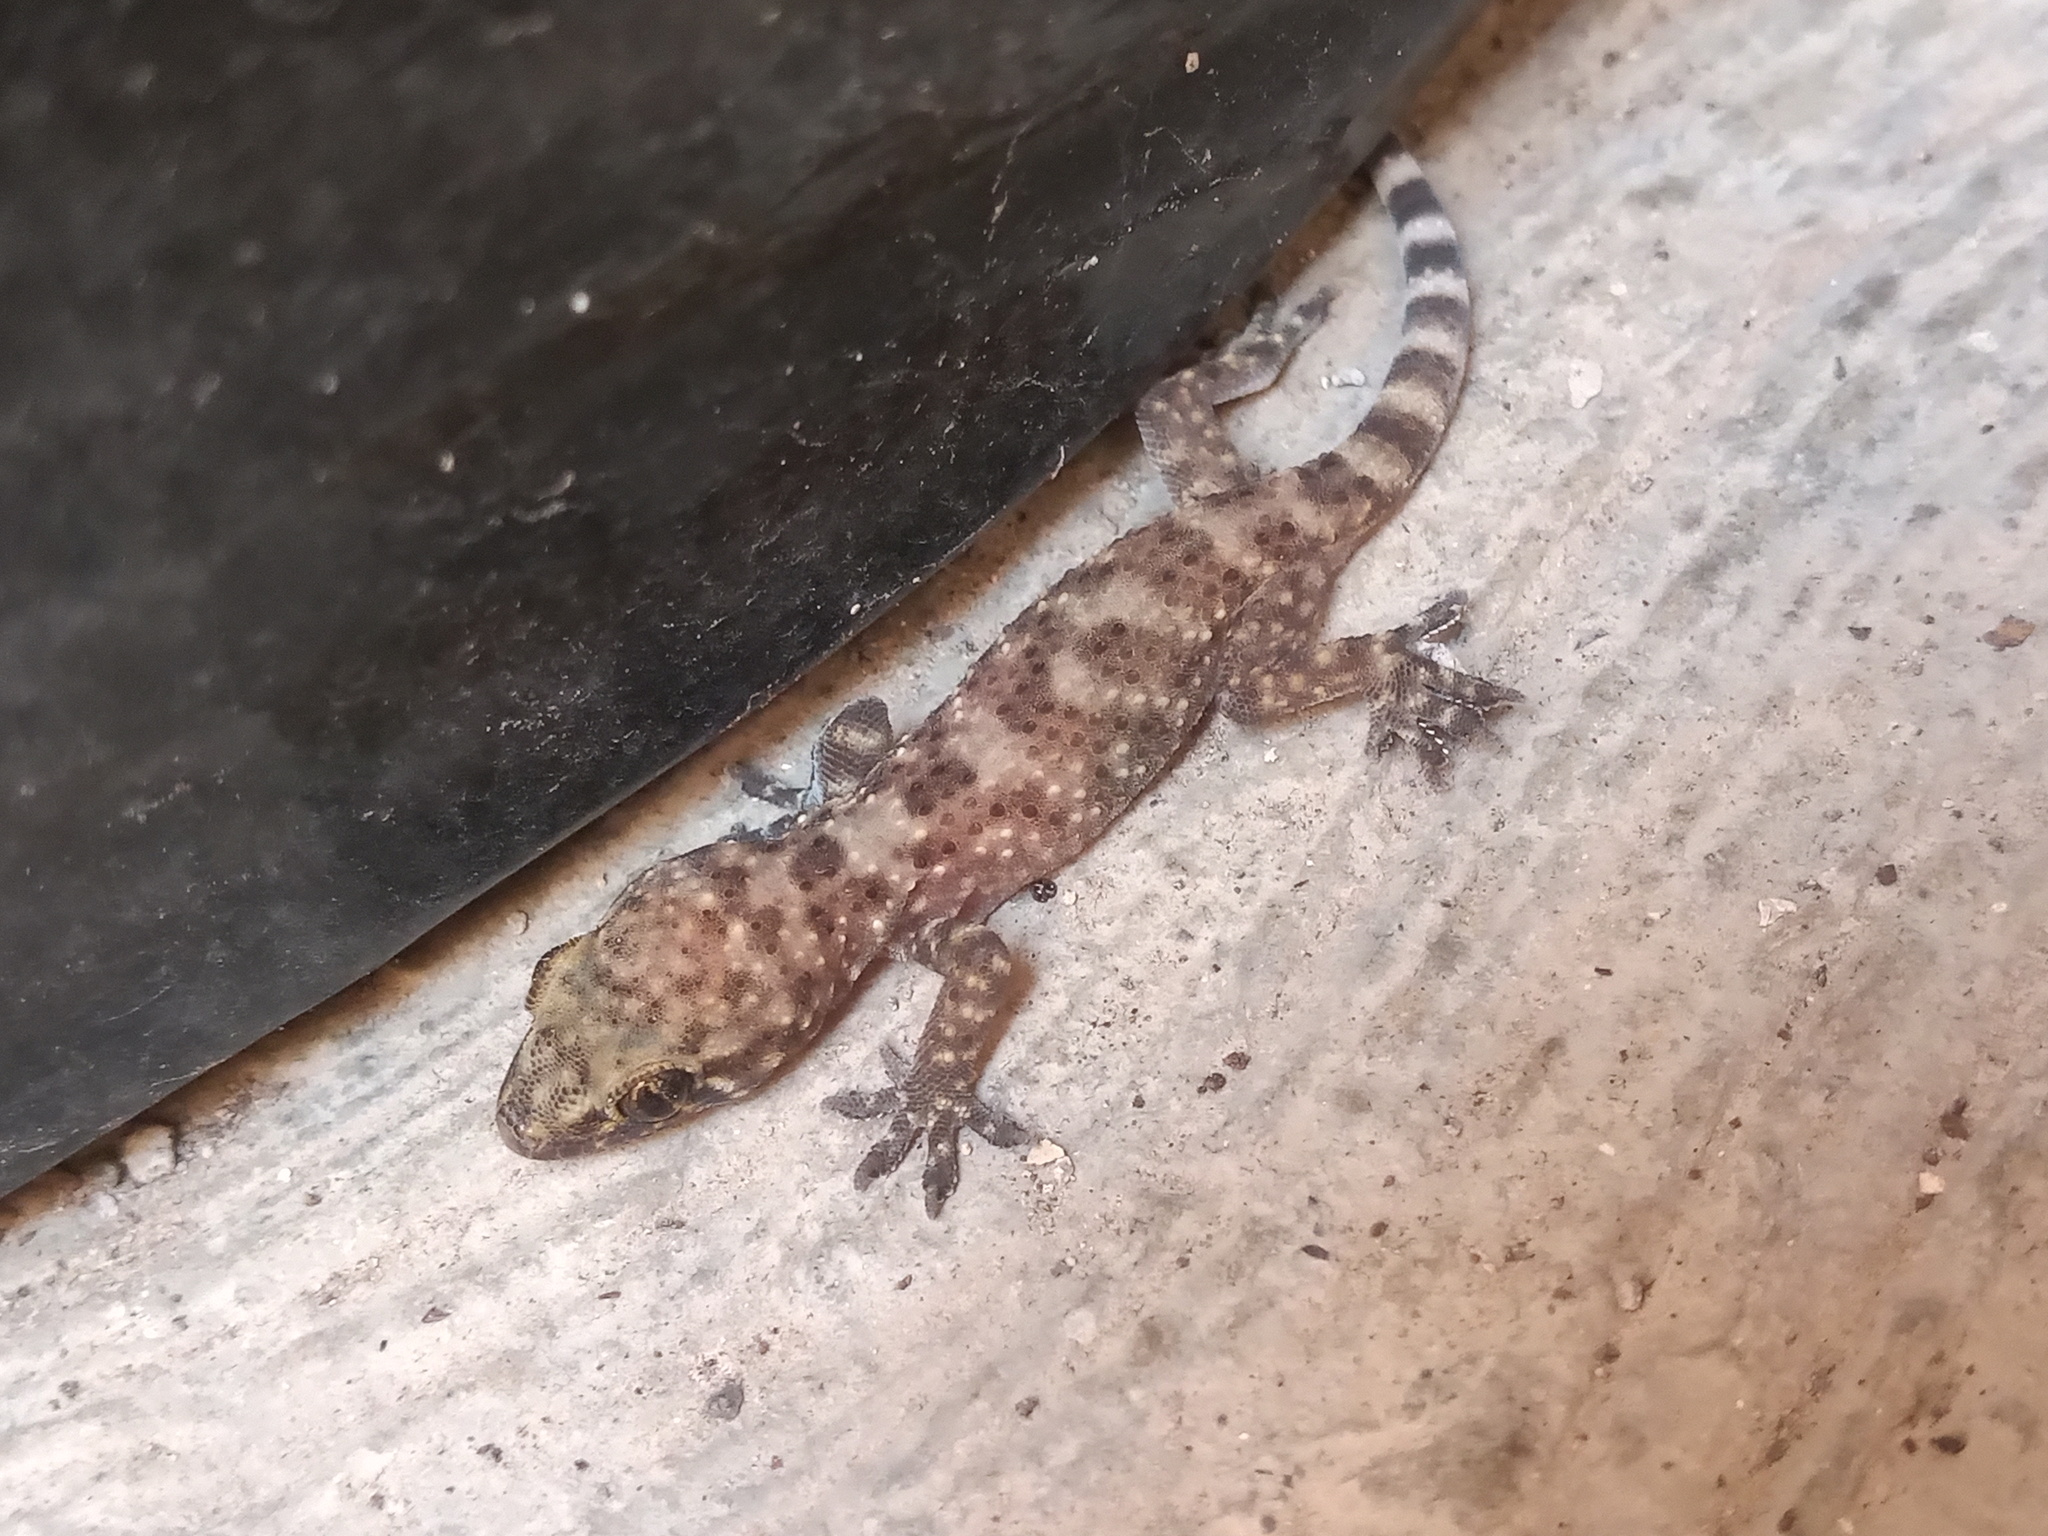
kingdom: Animalia
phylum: Chordata
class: Squamata
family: Gekkonidae
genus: Hemidactylus
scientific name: Hemidactylus turcicus
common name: Turkish gecko
